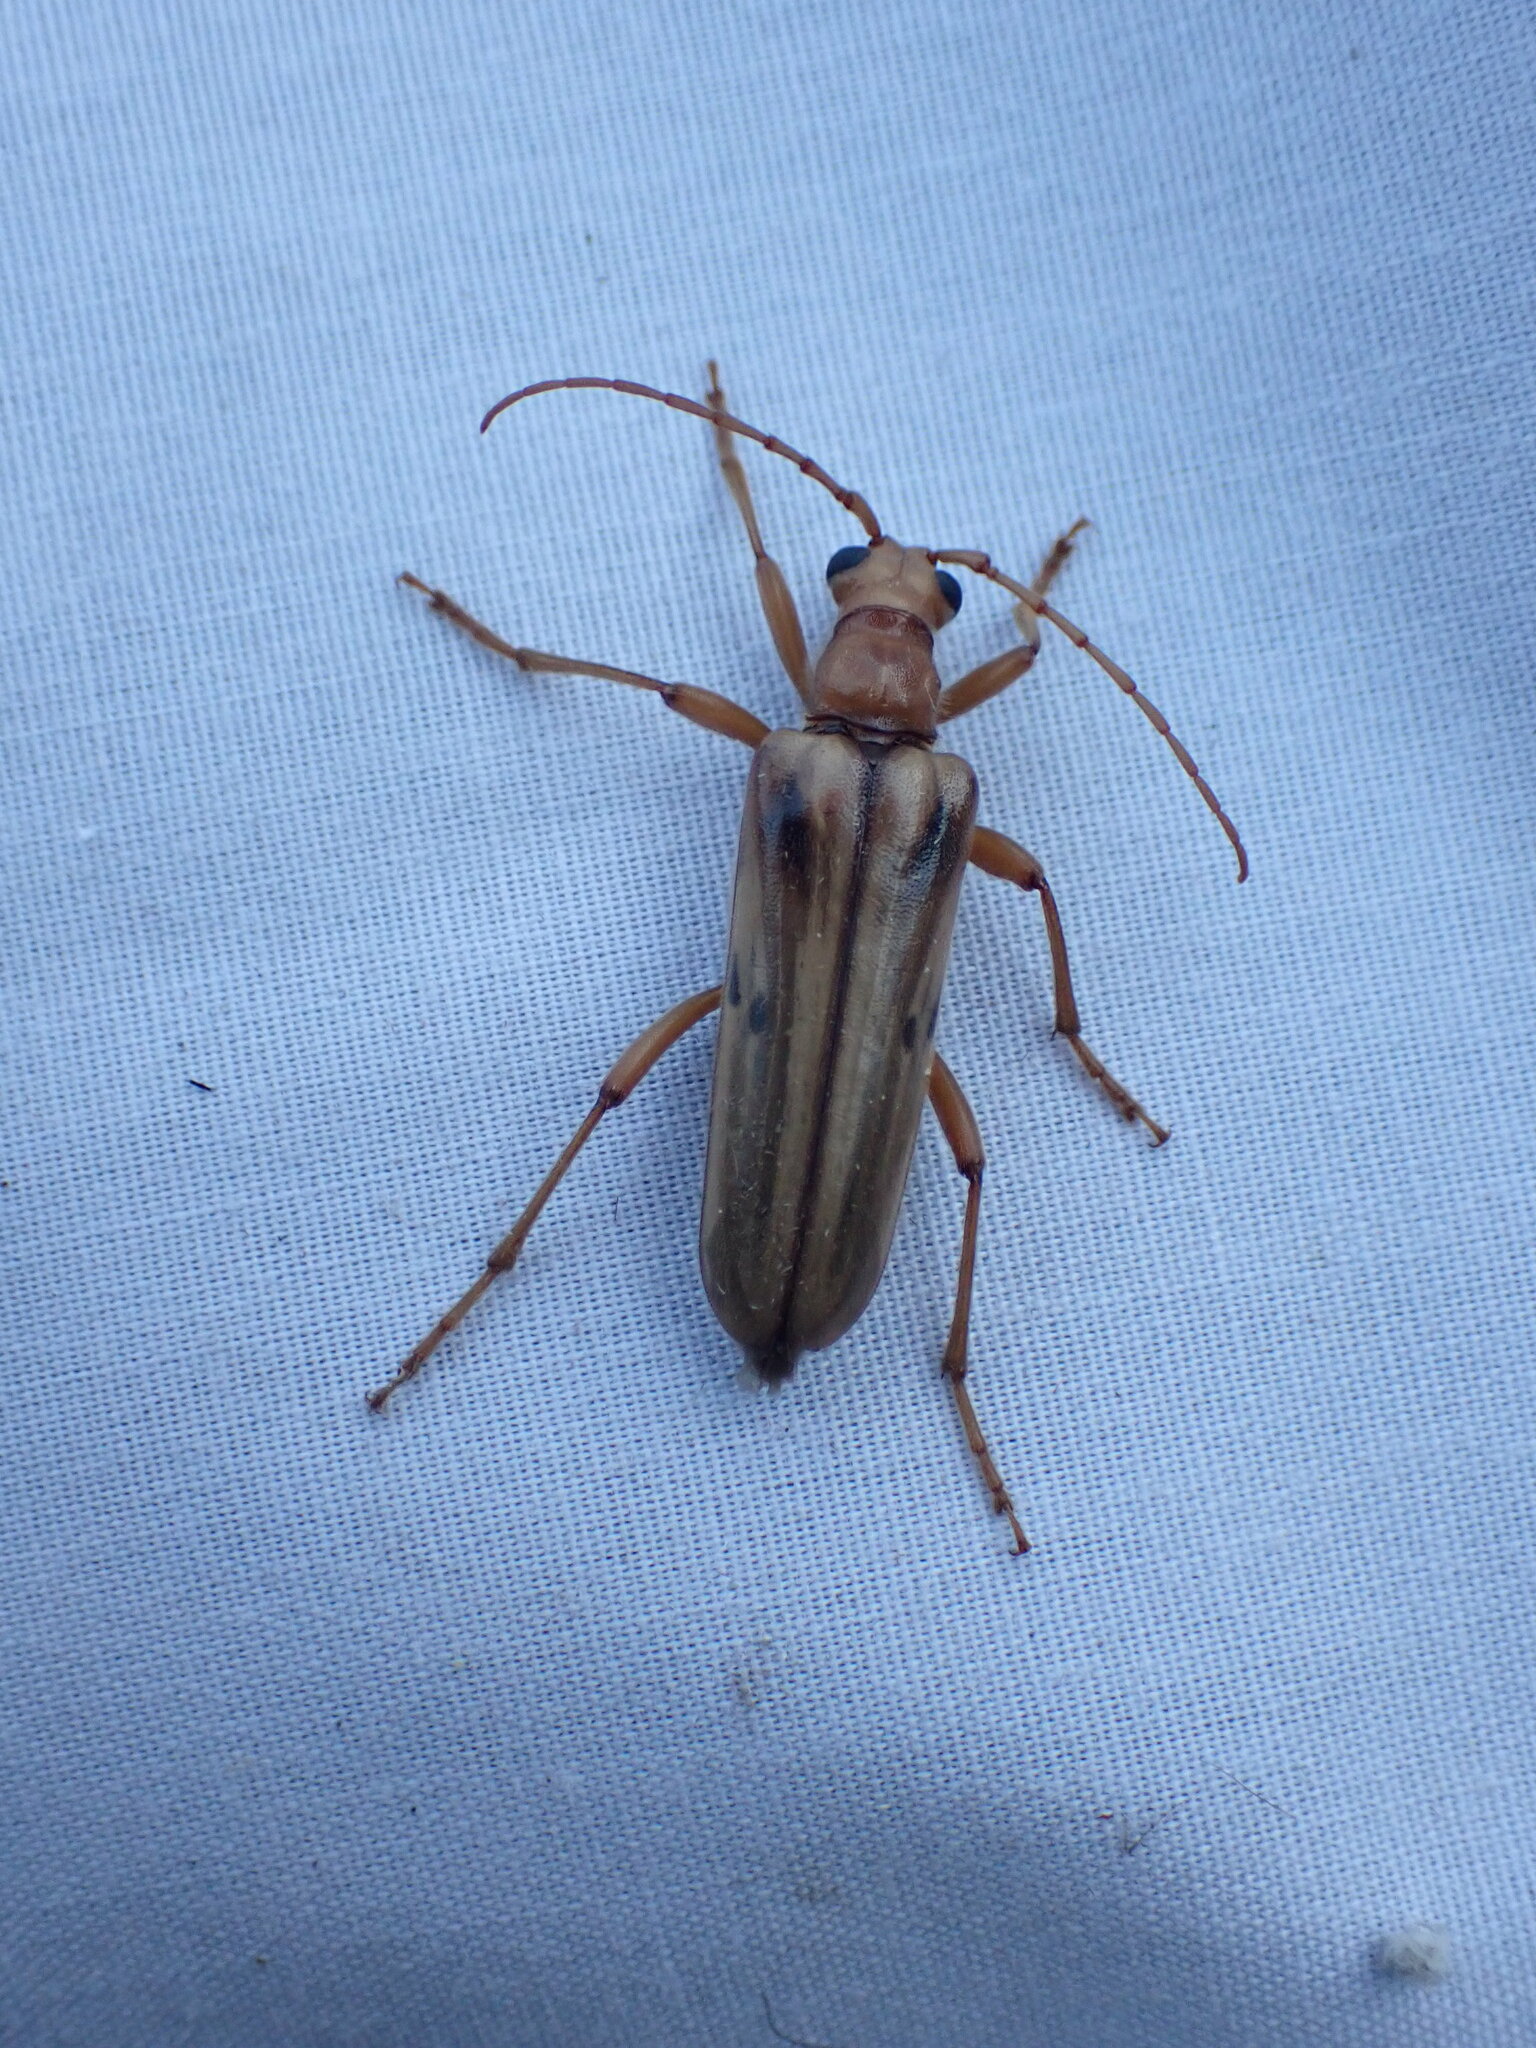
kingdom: Animalia
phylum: Arthropoda
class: Insecta
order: Coleoptera
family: Cerambycidae
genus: Ortholeptura
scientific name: Ortholeptura valida
